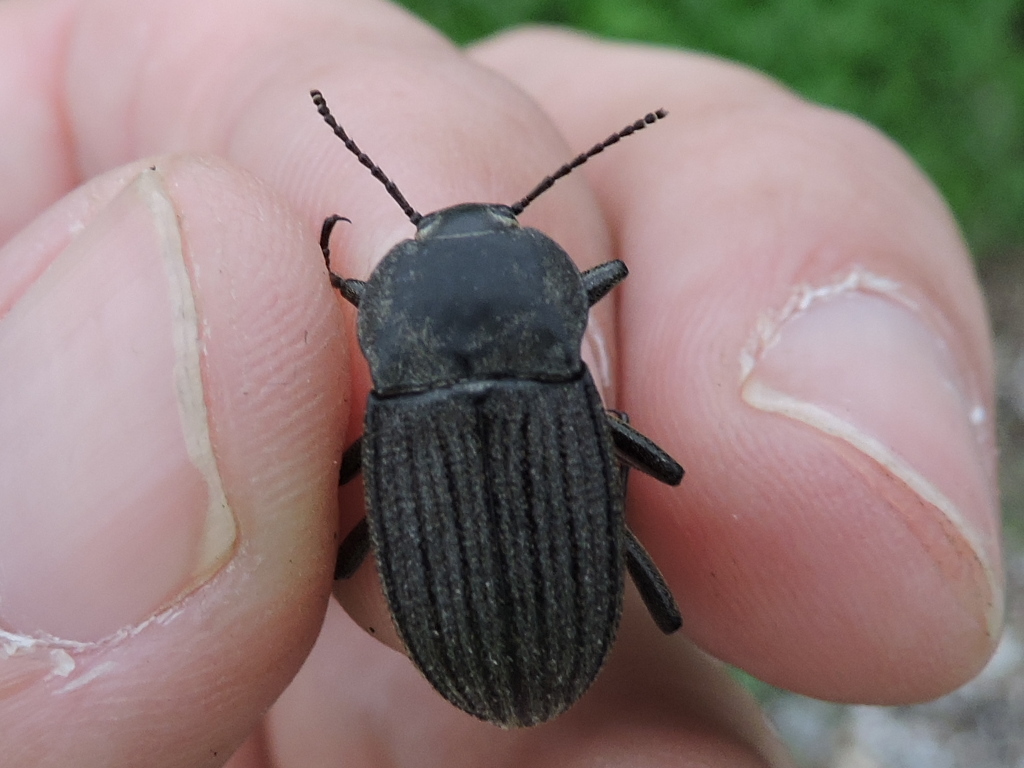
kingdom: Animalia
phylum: Arthropoda
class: Insecta
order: Coleoptera
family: Tenebrionidae
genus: Eleodes
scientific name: Eleodes tricostata
